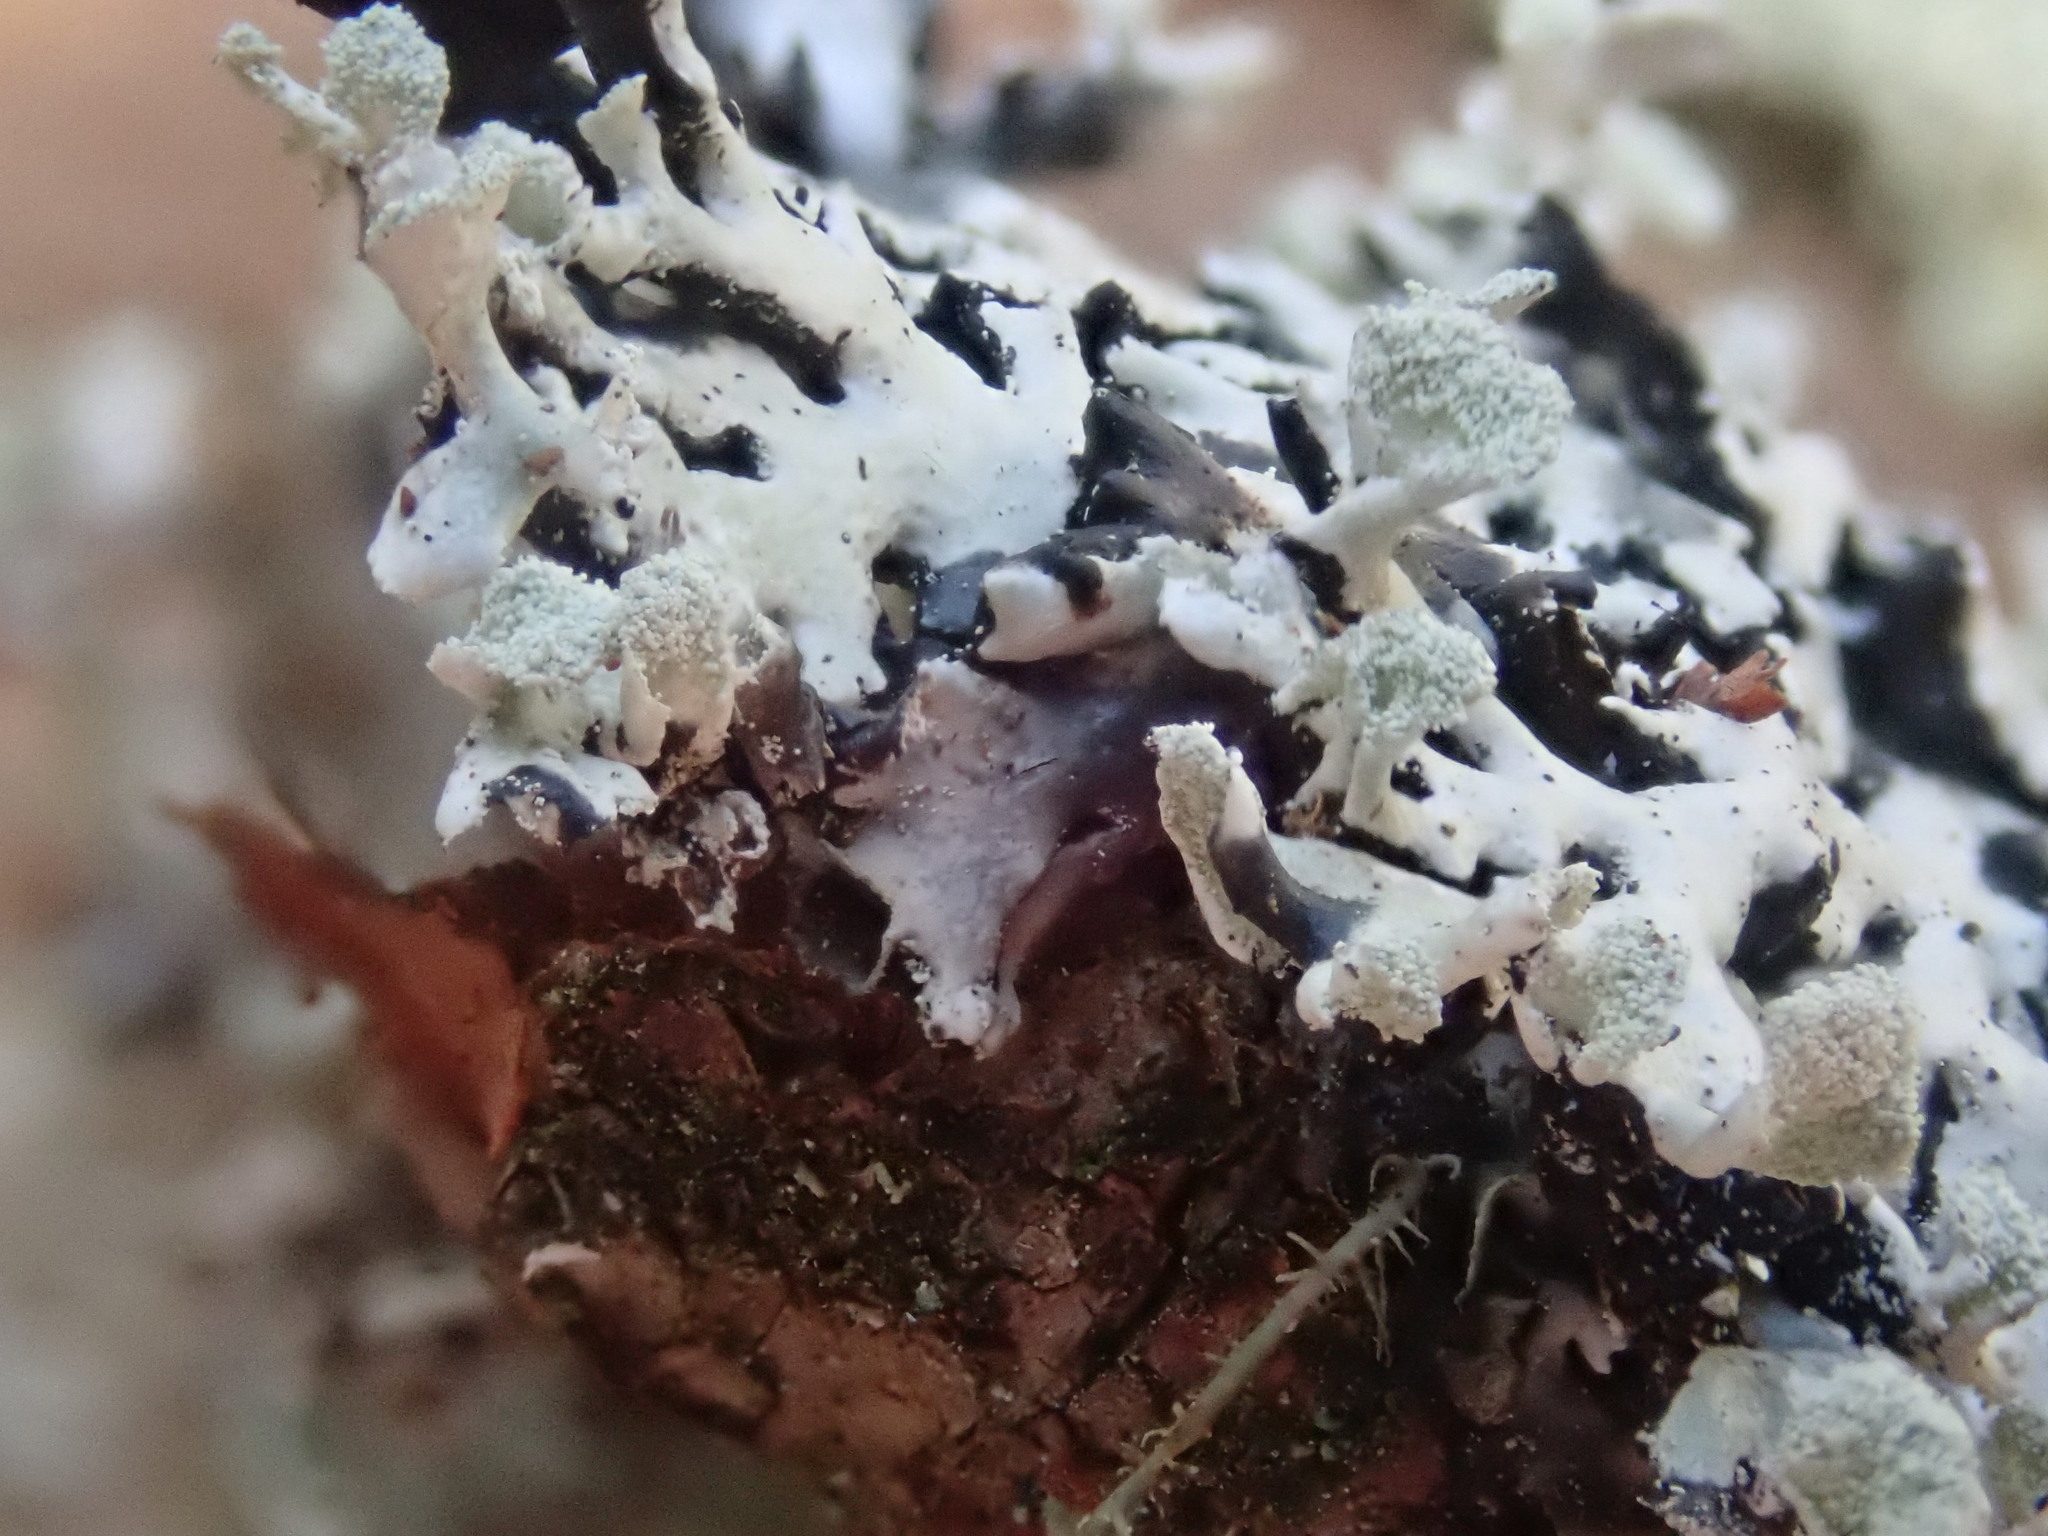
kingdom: Fungi
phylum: Ascomycota
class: Lecanoromycetes
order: Lecanorales
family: Parmeliaceae
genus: Hypogymnia
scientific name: Hypogymnia physodes
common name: Dark crottle
